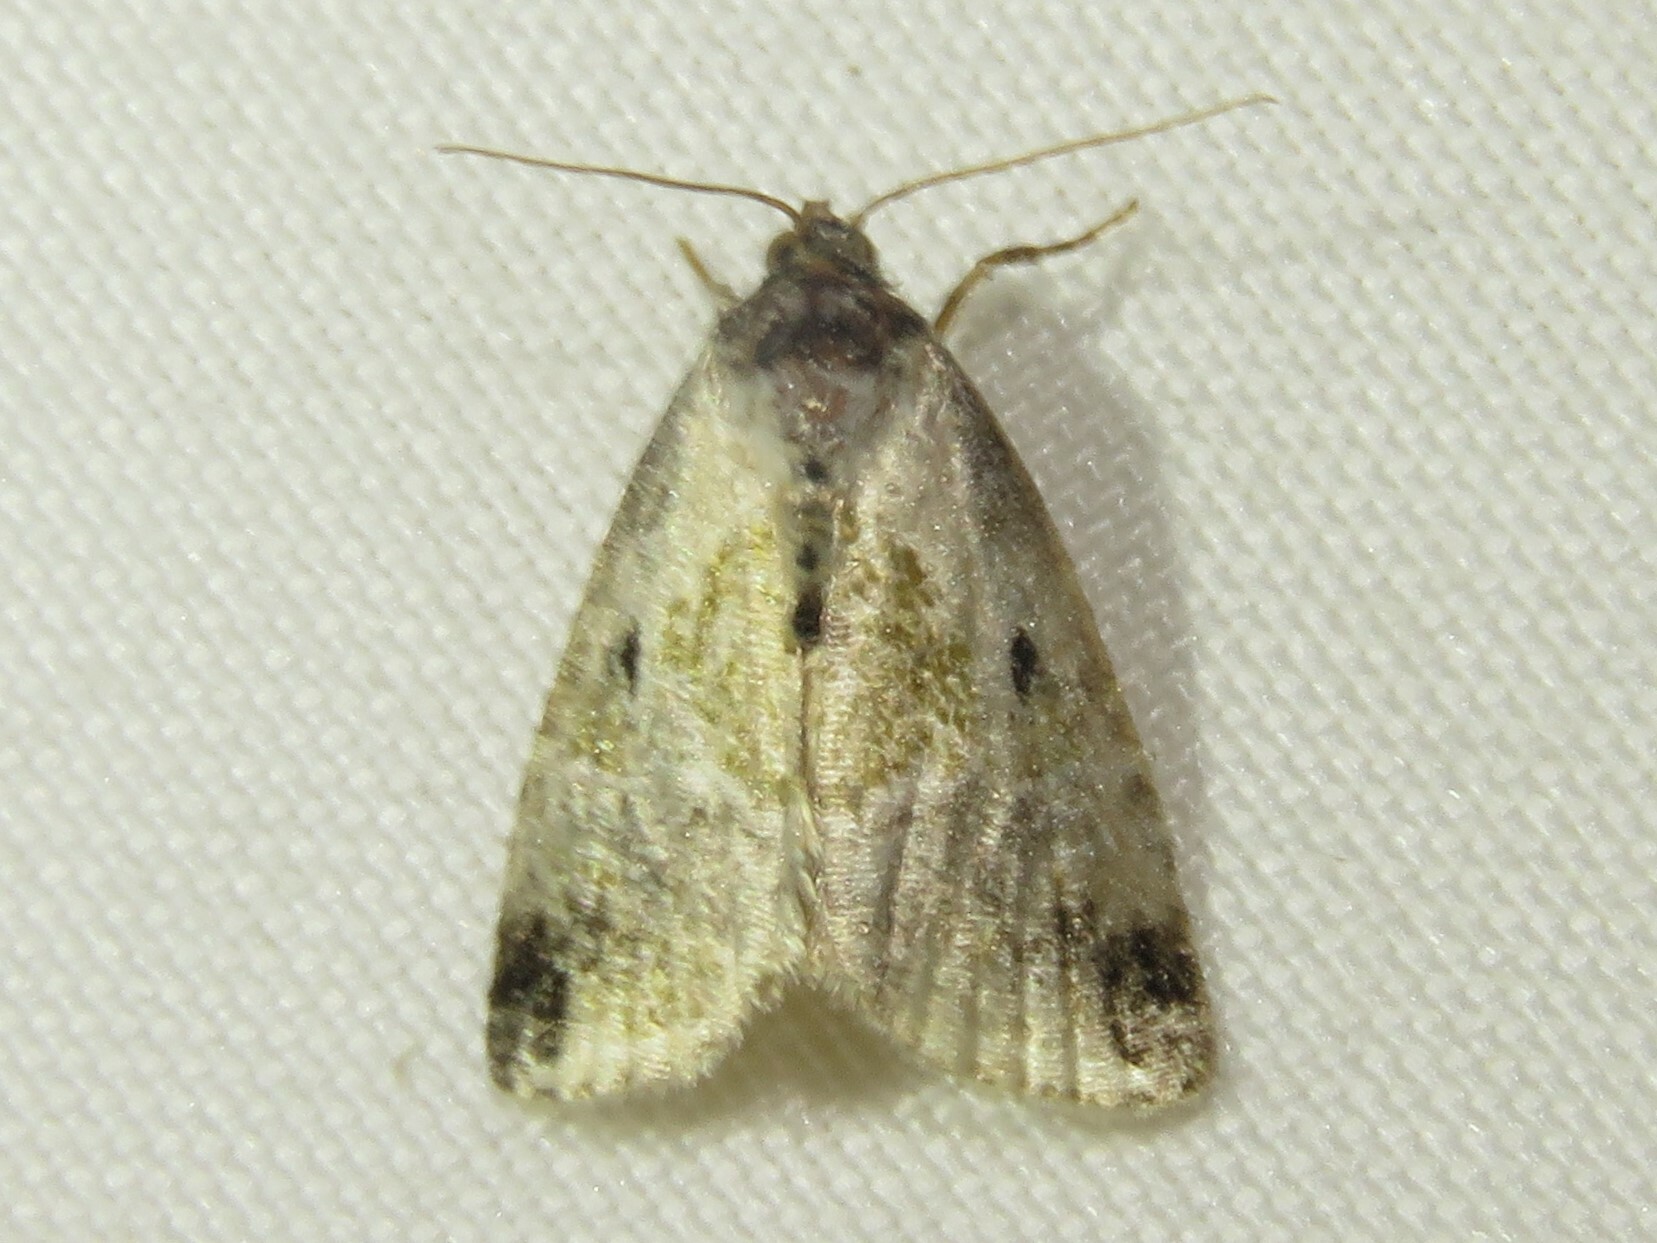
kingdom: Animalia
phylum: Arthropoda
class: Insecta
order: Lepidoptera
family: Noctuidae
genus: Maliattha
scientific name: Maliattha synochitis
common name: Black-dotted glyph
